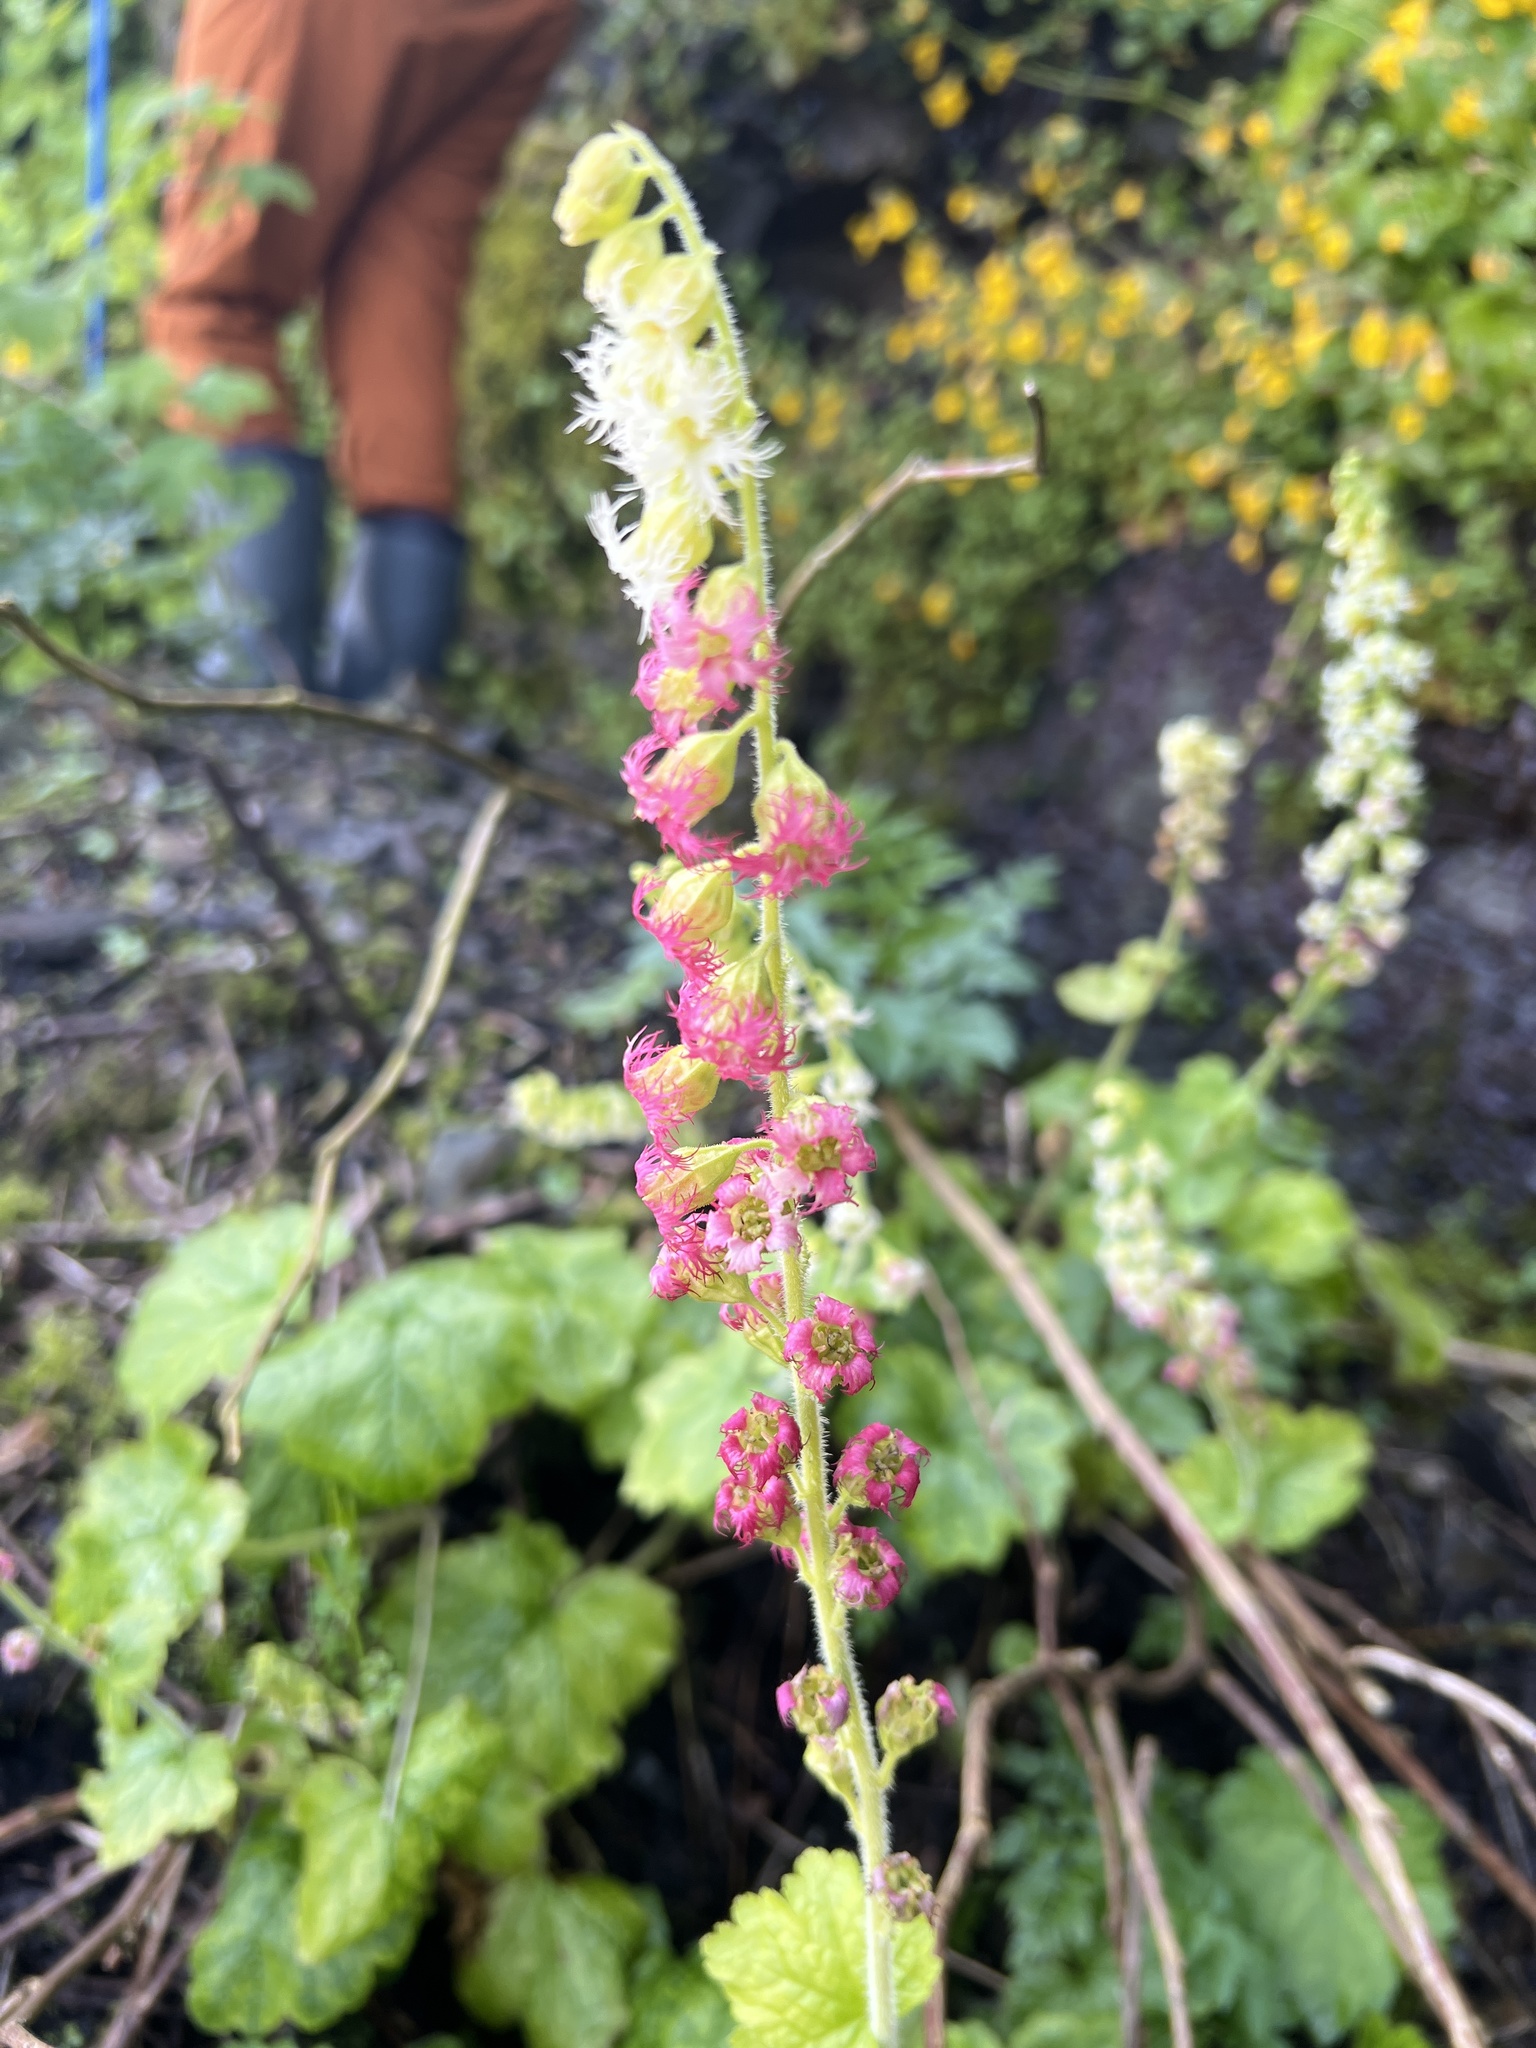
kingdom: Plantae
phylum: Tracheophyta
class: Magnoliopsida
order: Saxifragales
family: Saxifragaceae
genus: Tellima
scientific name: Tellima grandiflora
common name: Fringecups
